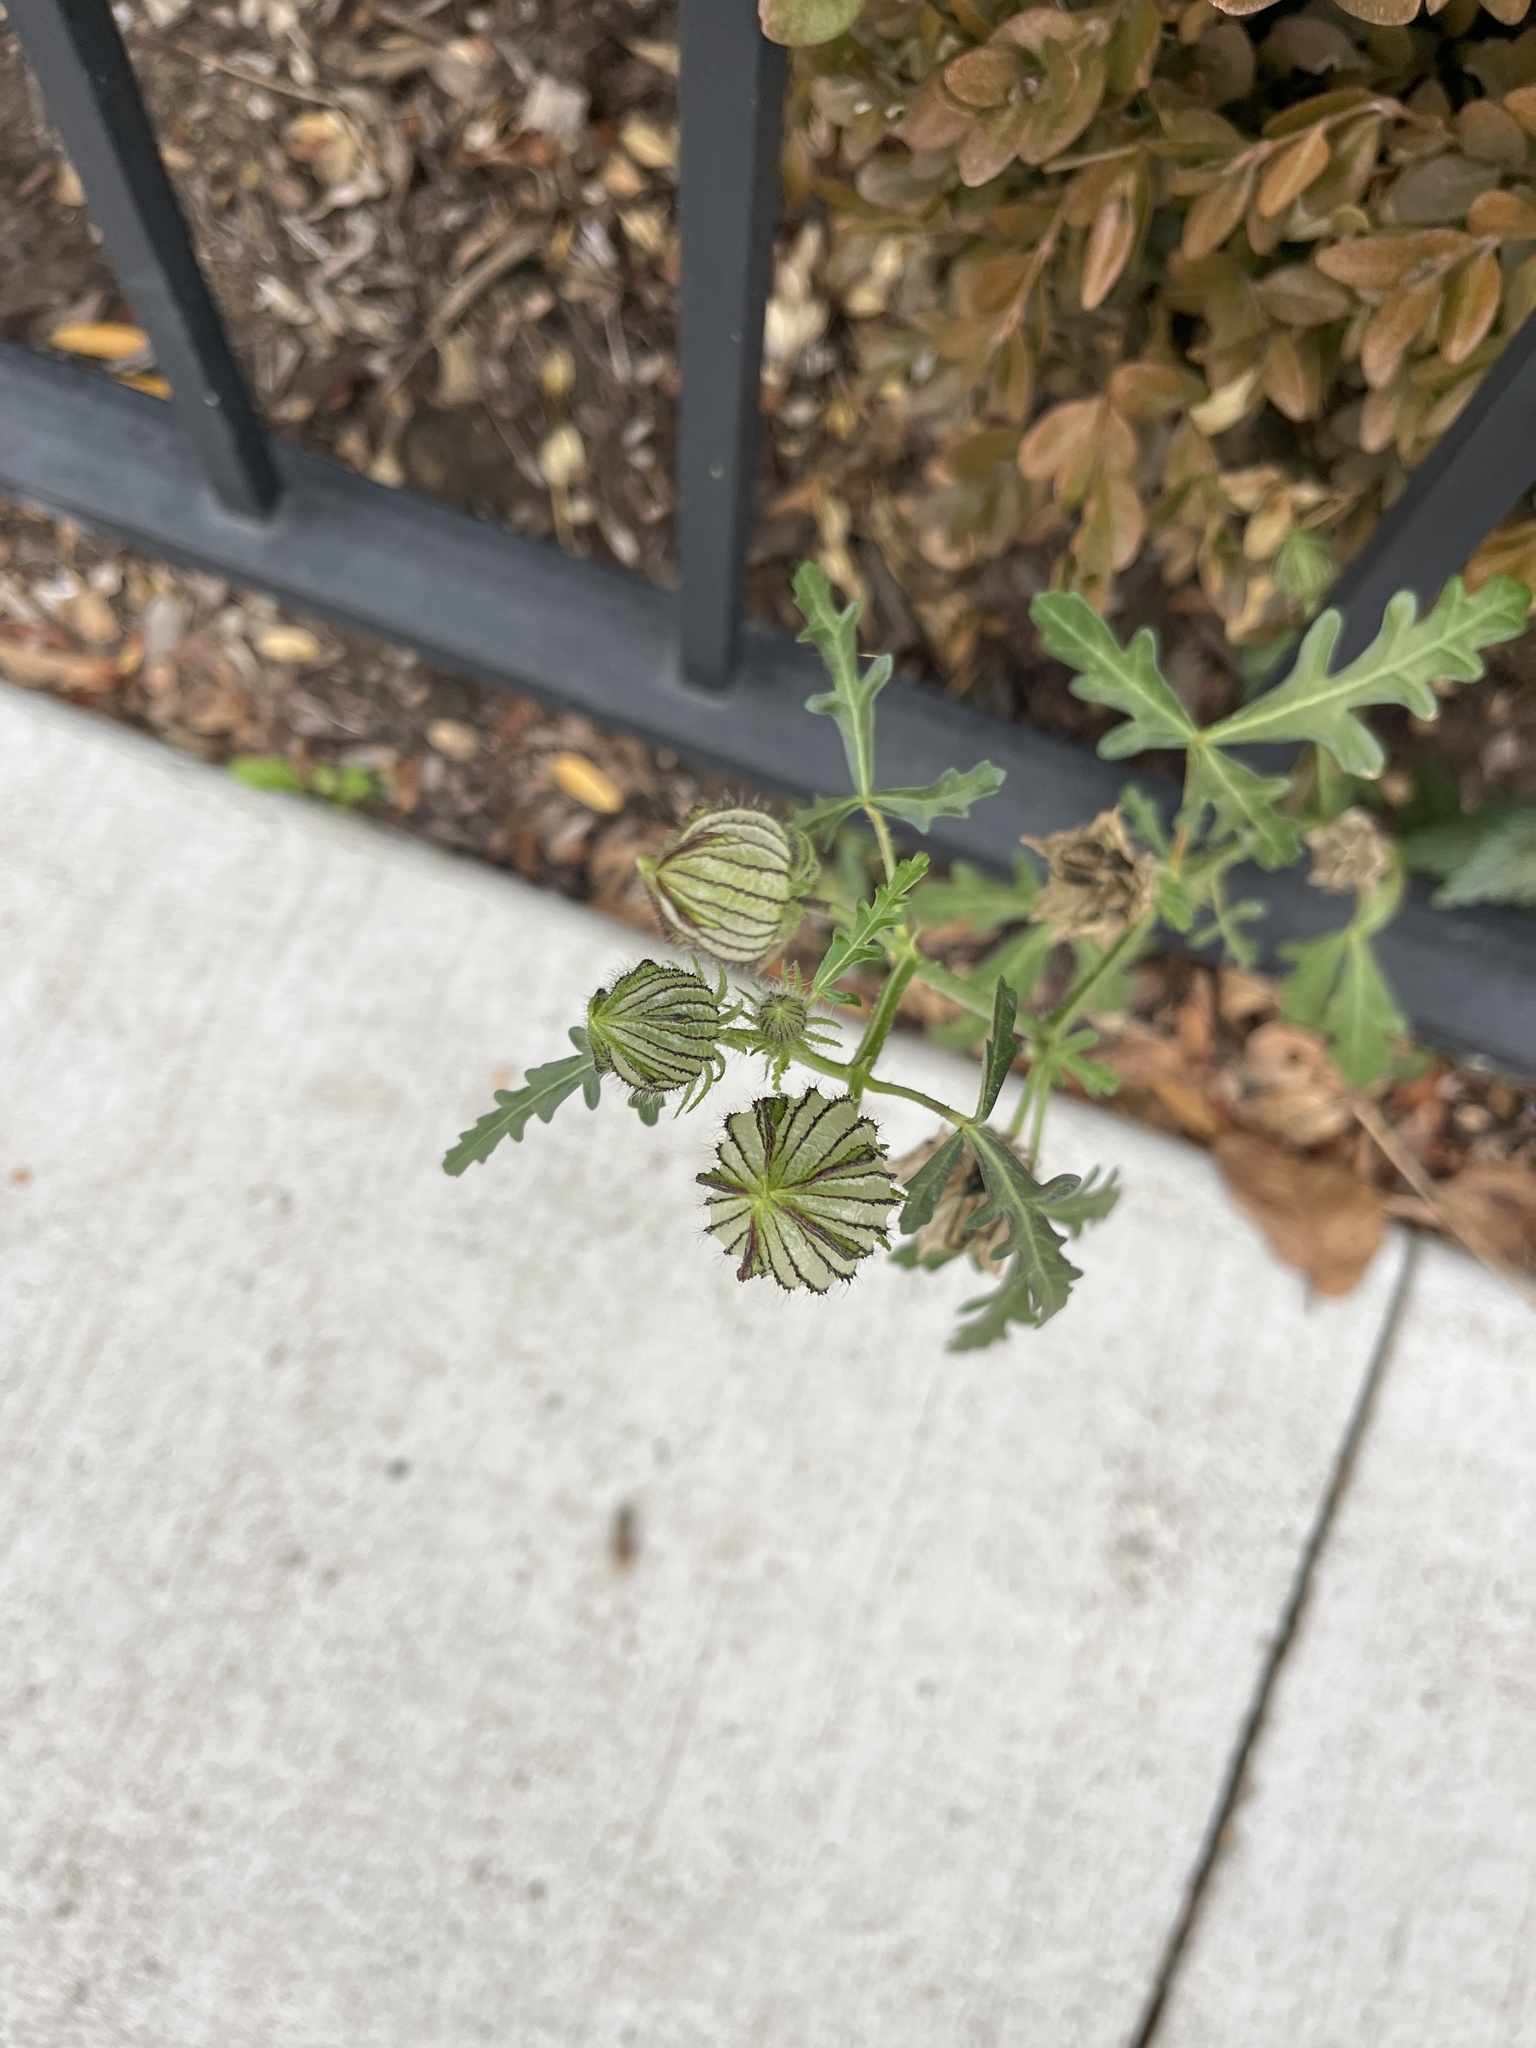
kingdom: Plantae
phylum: Tracheophyta
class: Magnoliopsida
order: Malvales
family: Malvaceae
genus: Hibiscus
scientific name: Hibiscus trionum
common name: Bladder ketmia
